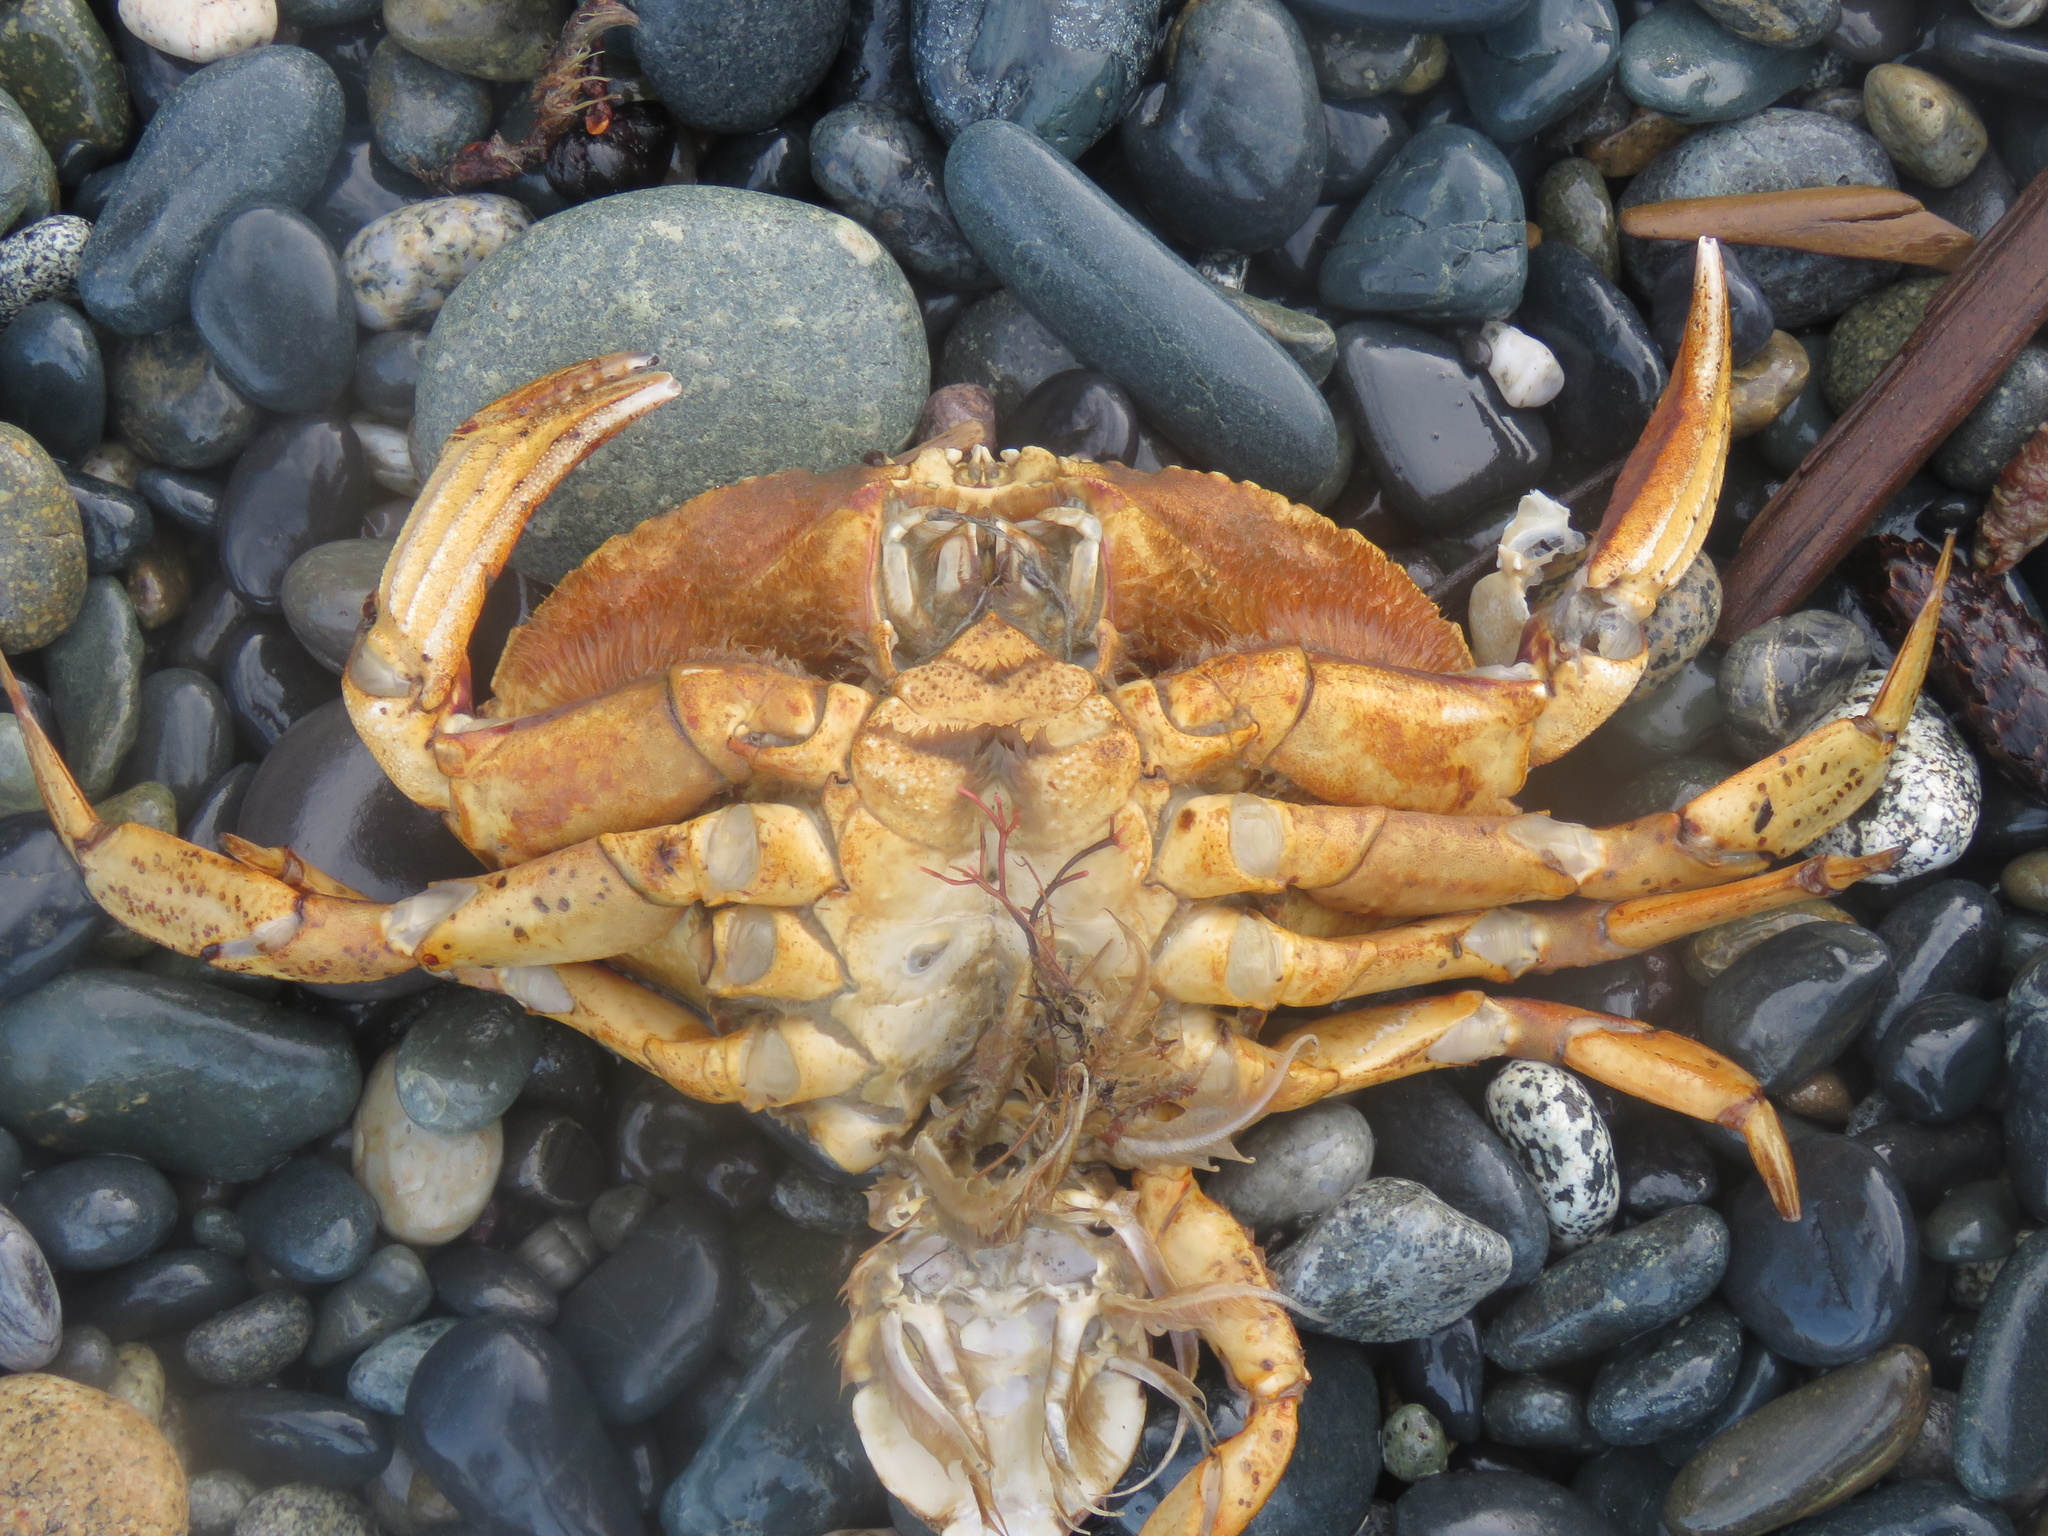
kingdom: Animalia
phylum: Arthropoda
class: Malacostraca
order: Decapoda
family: Cancridae
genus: Metacarcinus
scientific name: Metacarcinus magister
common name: Californian crab
